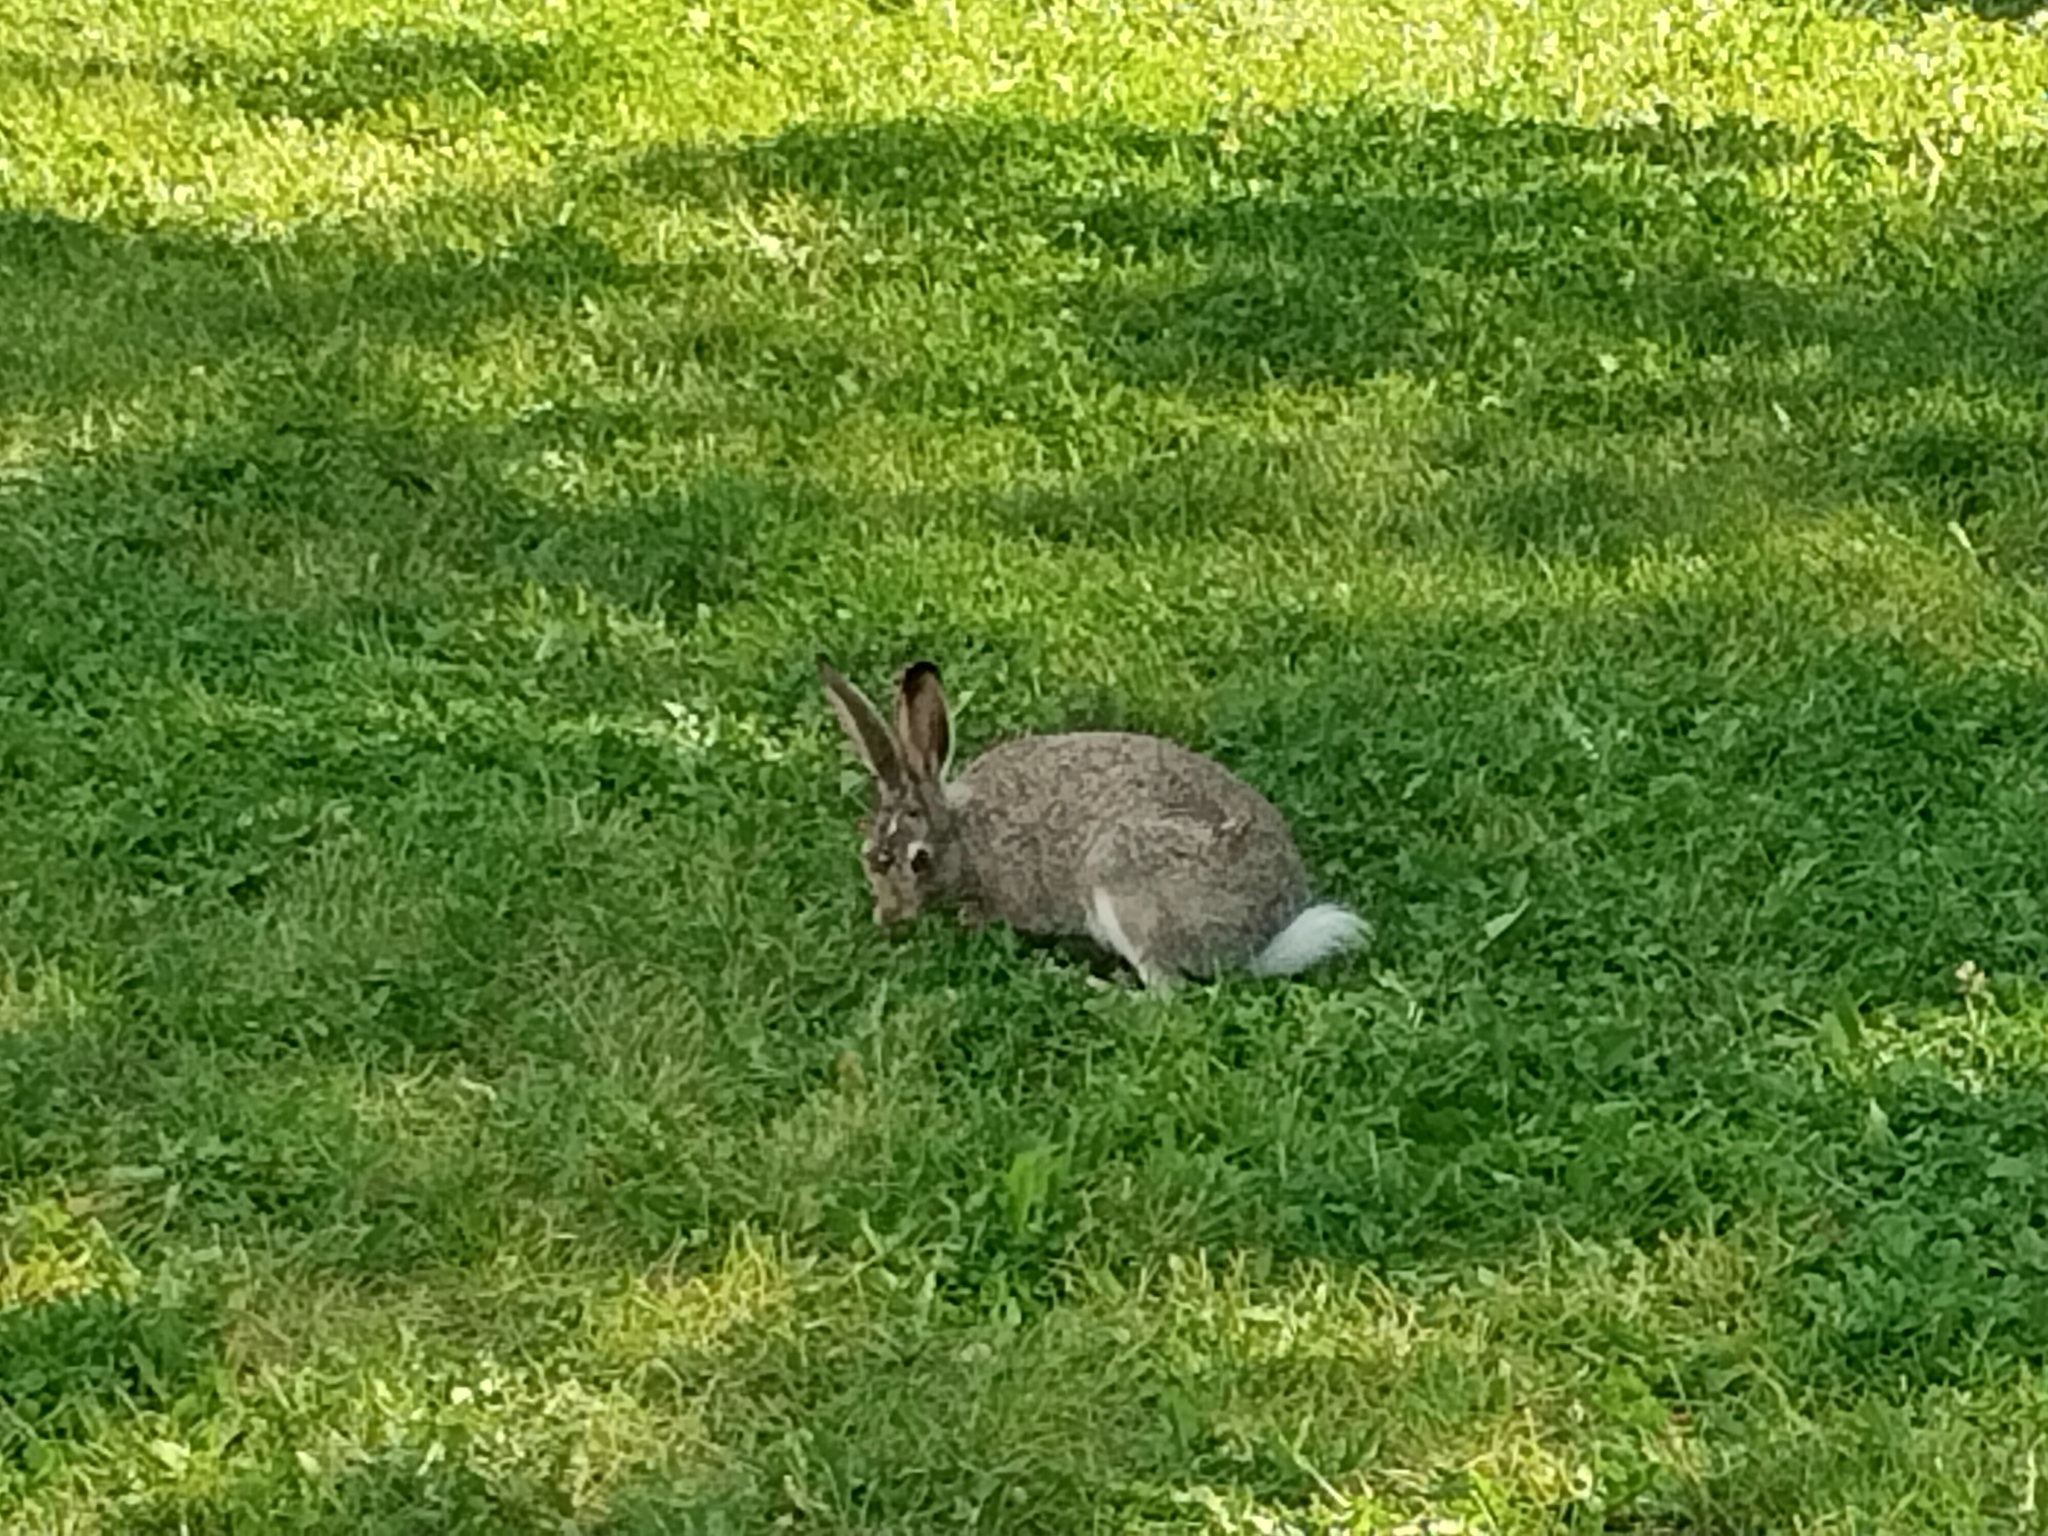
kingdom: Animalia
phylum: Chordata
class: Mammalia
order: Lagomorpha
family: Leporidae
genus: Lepus
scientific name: Lepus townsendii
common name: White-tailed jackrabbit
